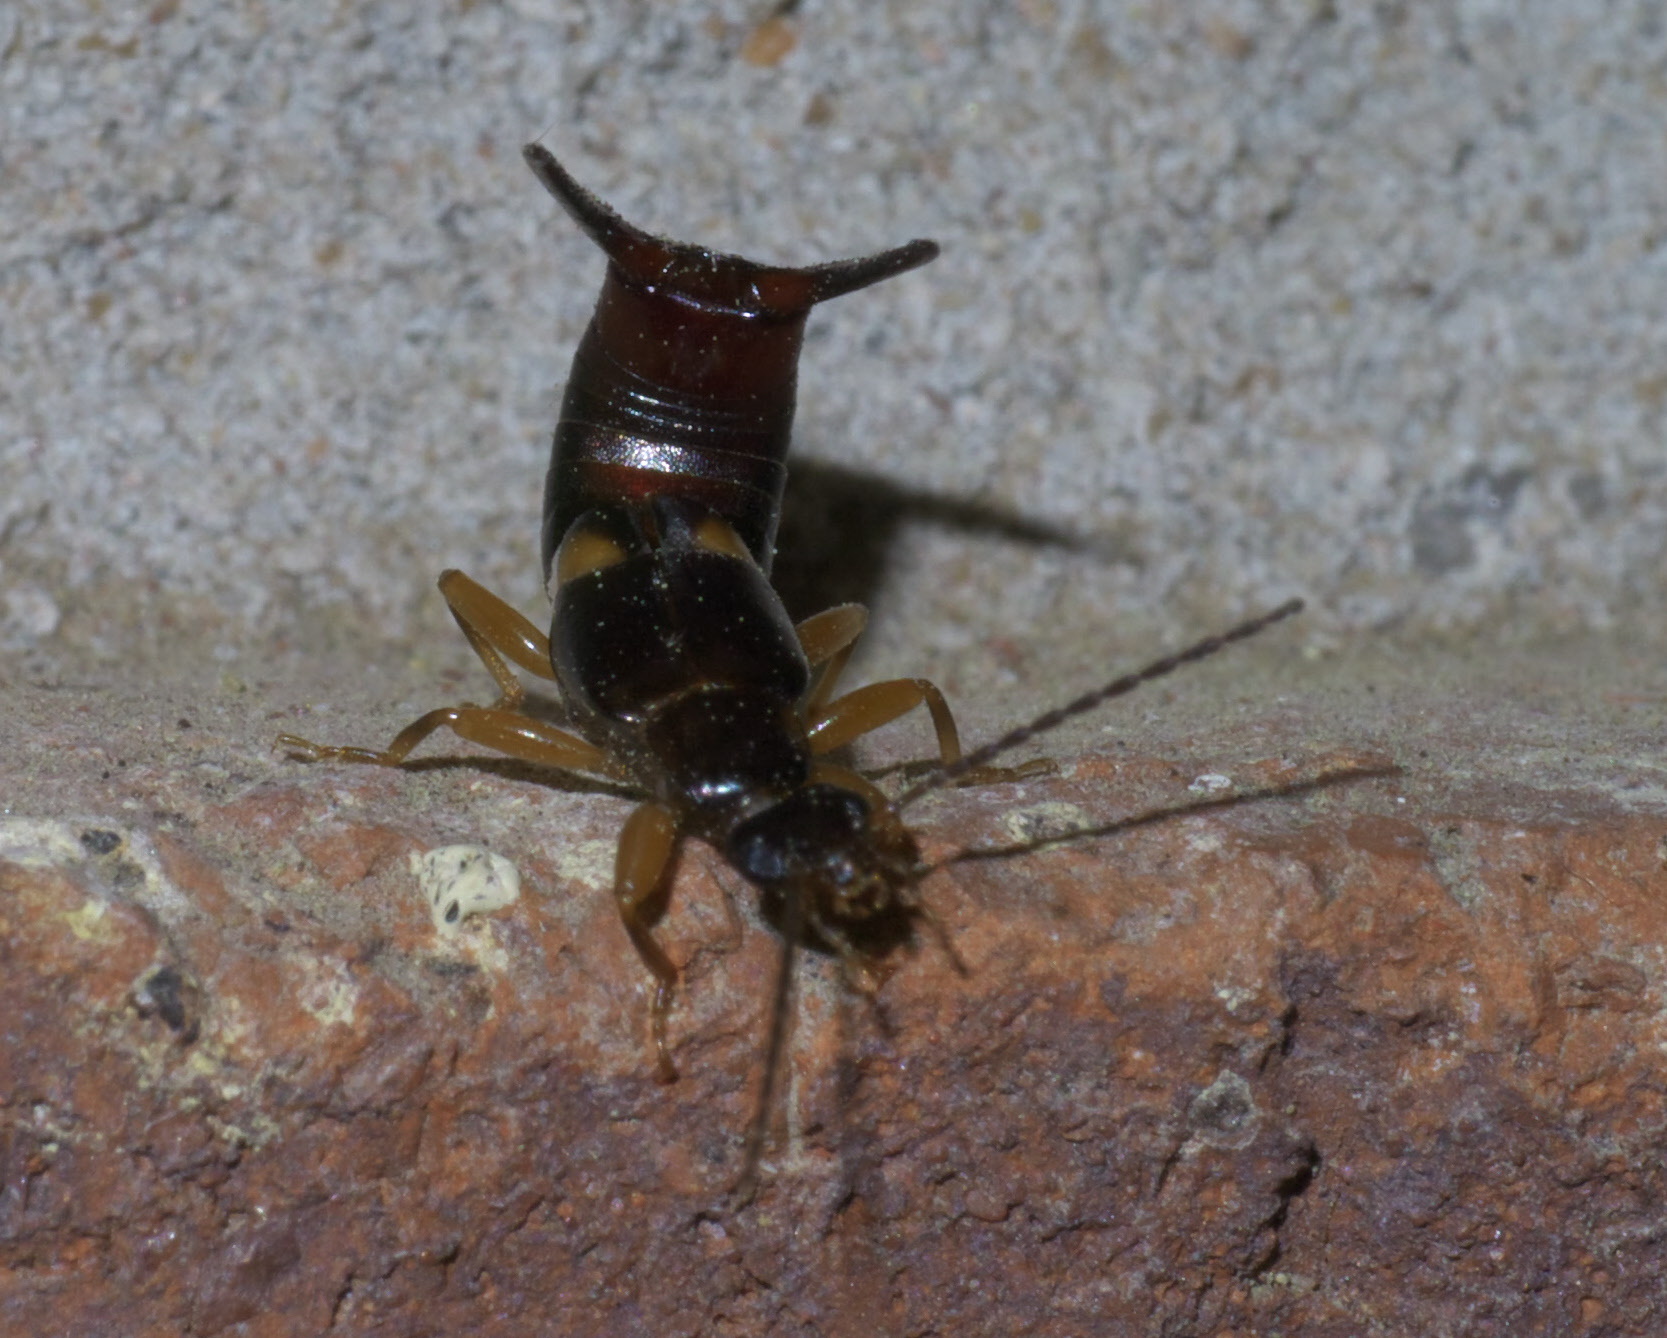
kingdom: Animalia
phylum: Arthropoda
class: Insecta
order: Dermaptera
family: Spongiphoridae
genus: Vostox
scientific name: Vostox brunneipennis
